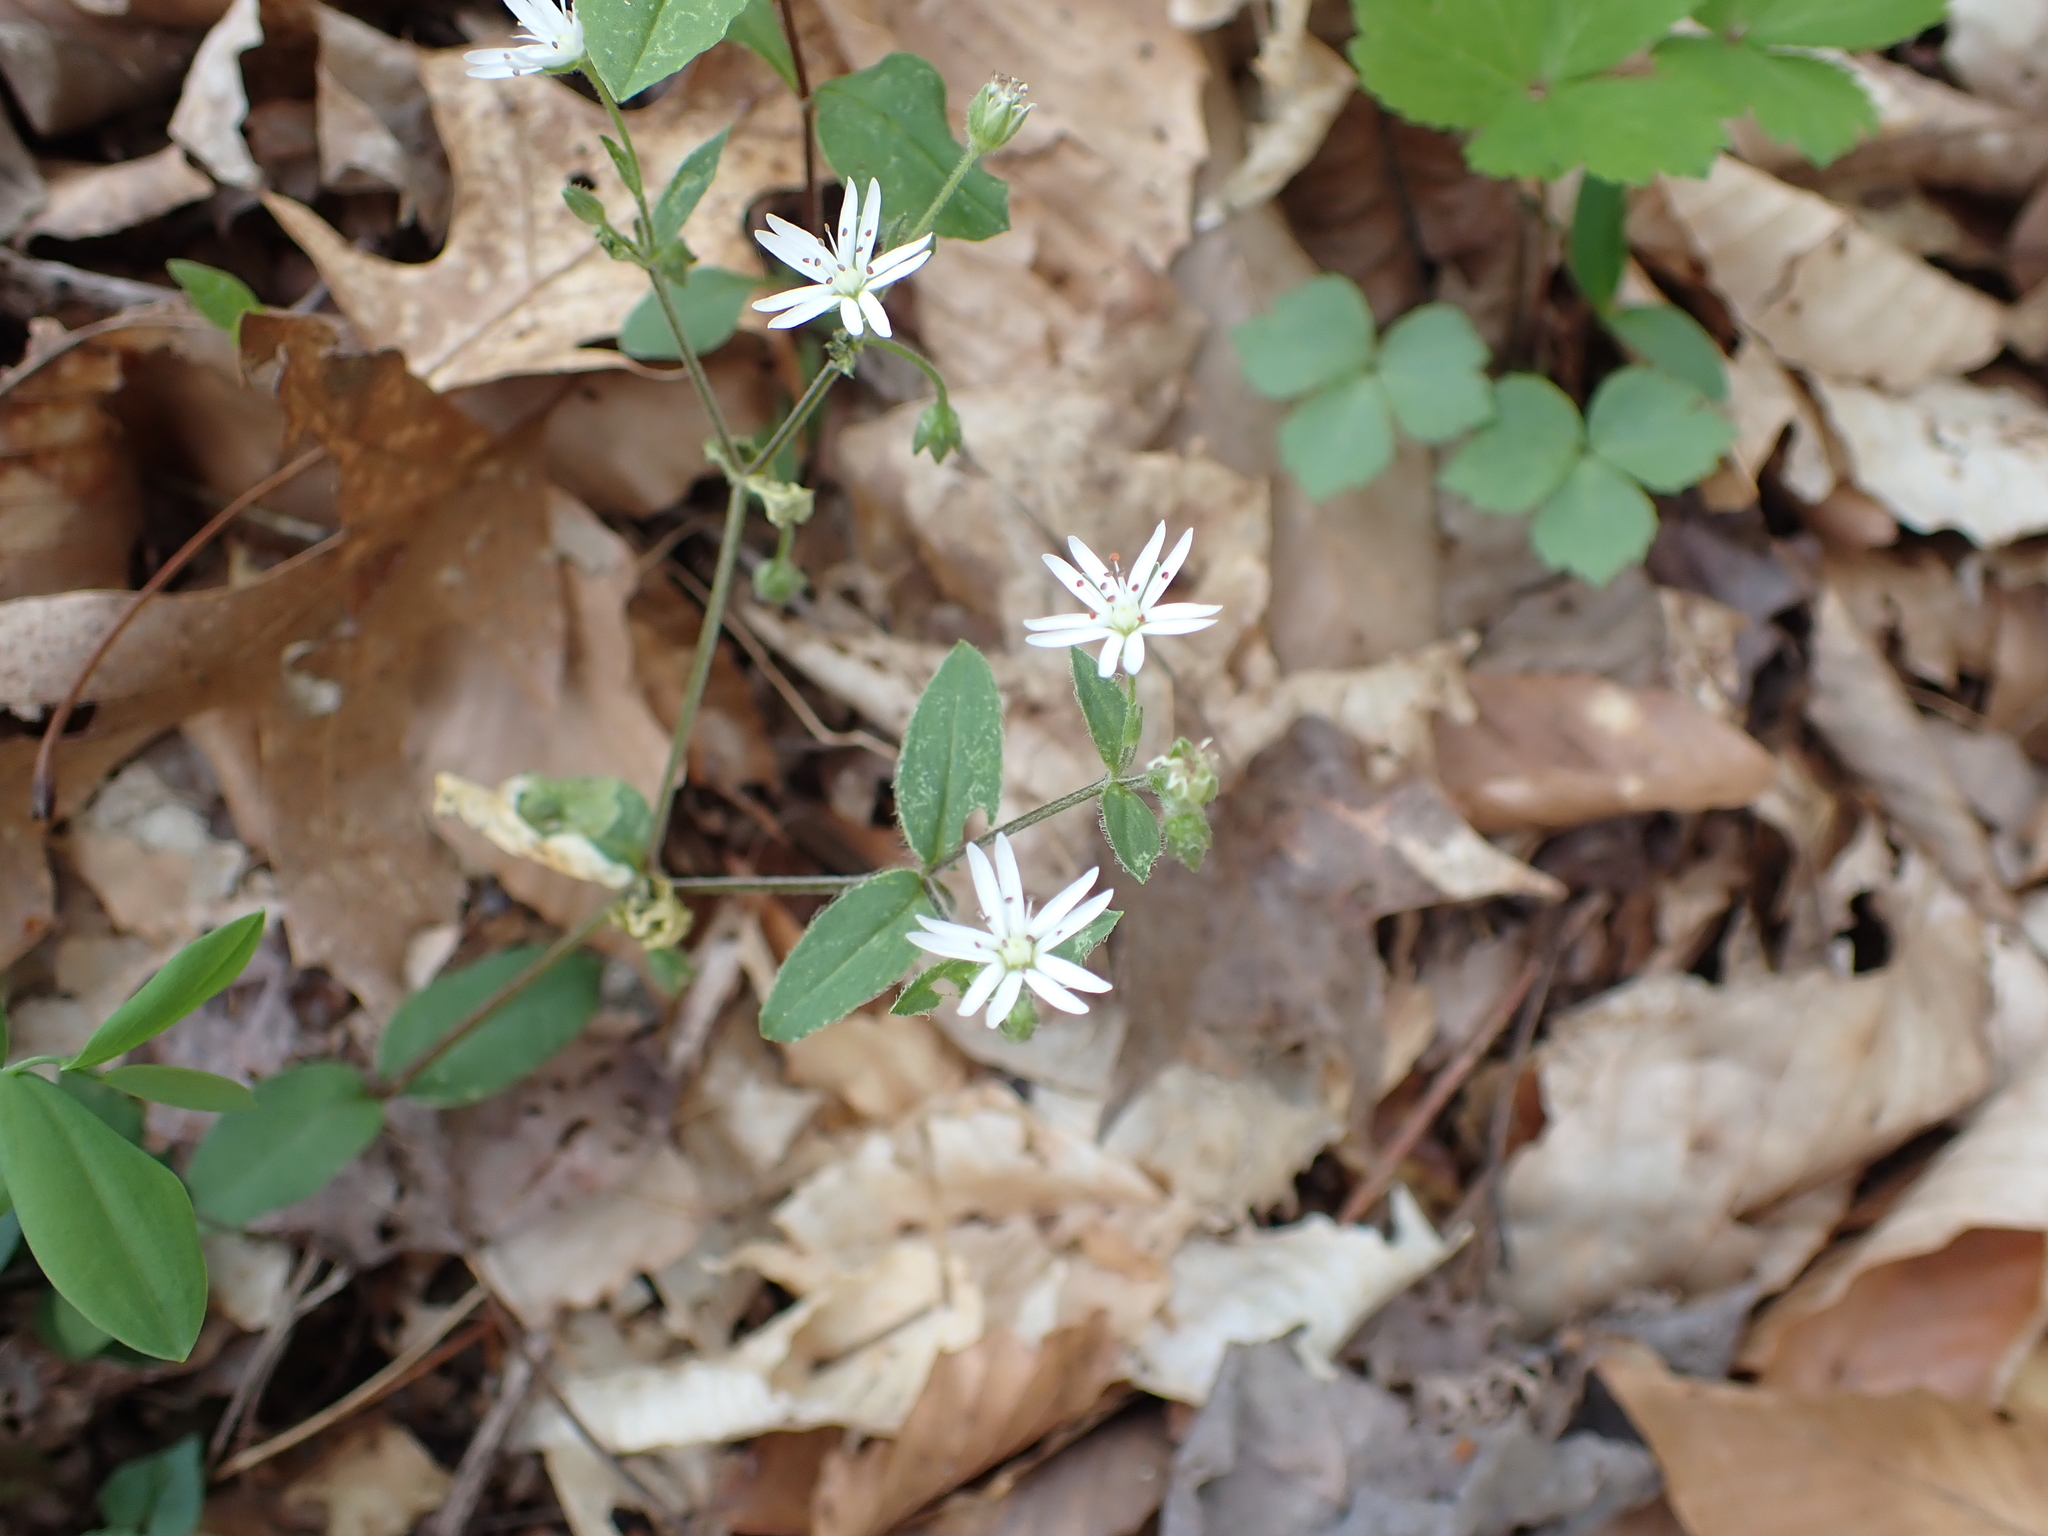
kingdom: Plantae
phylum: Tracheophyta
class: Magnoliopsida
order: Caryophyllales
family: Caryophyllaceae
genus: Stellaria
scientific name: Stellaria pubera
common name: Star chickweed
